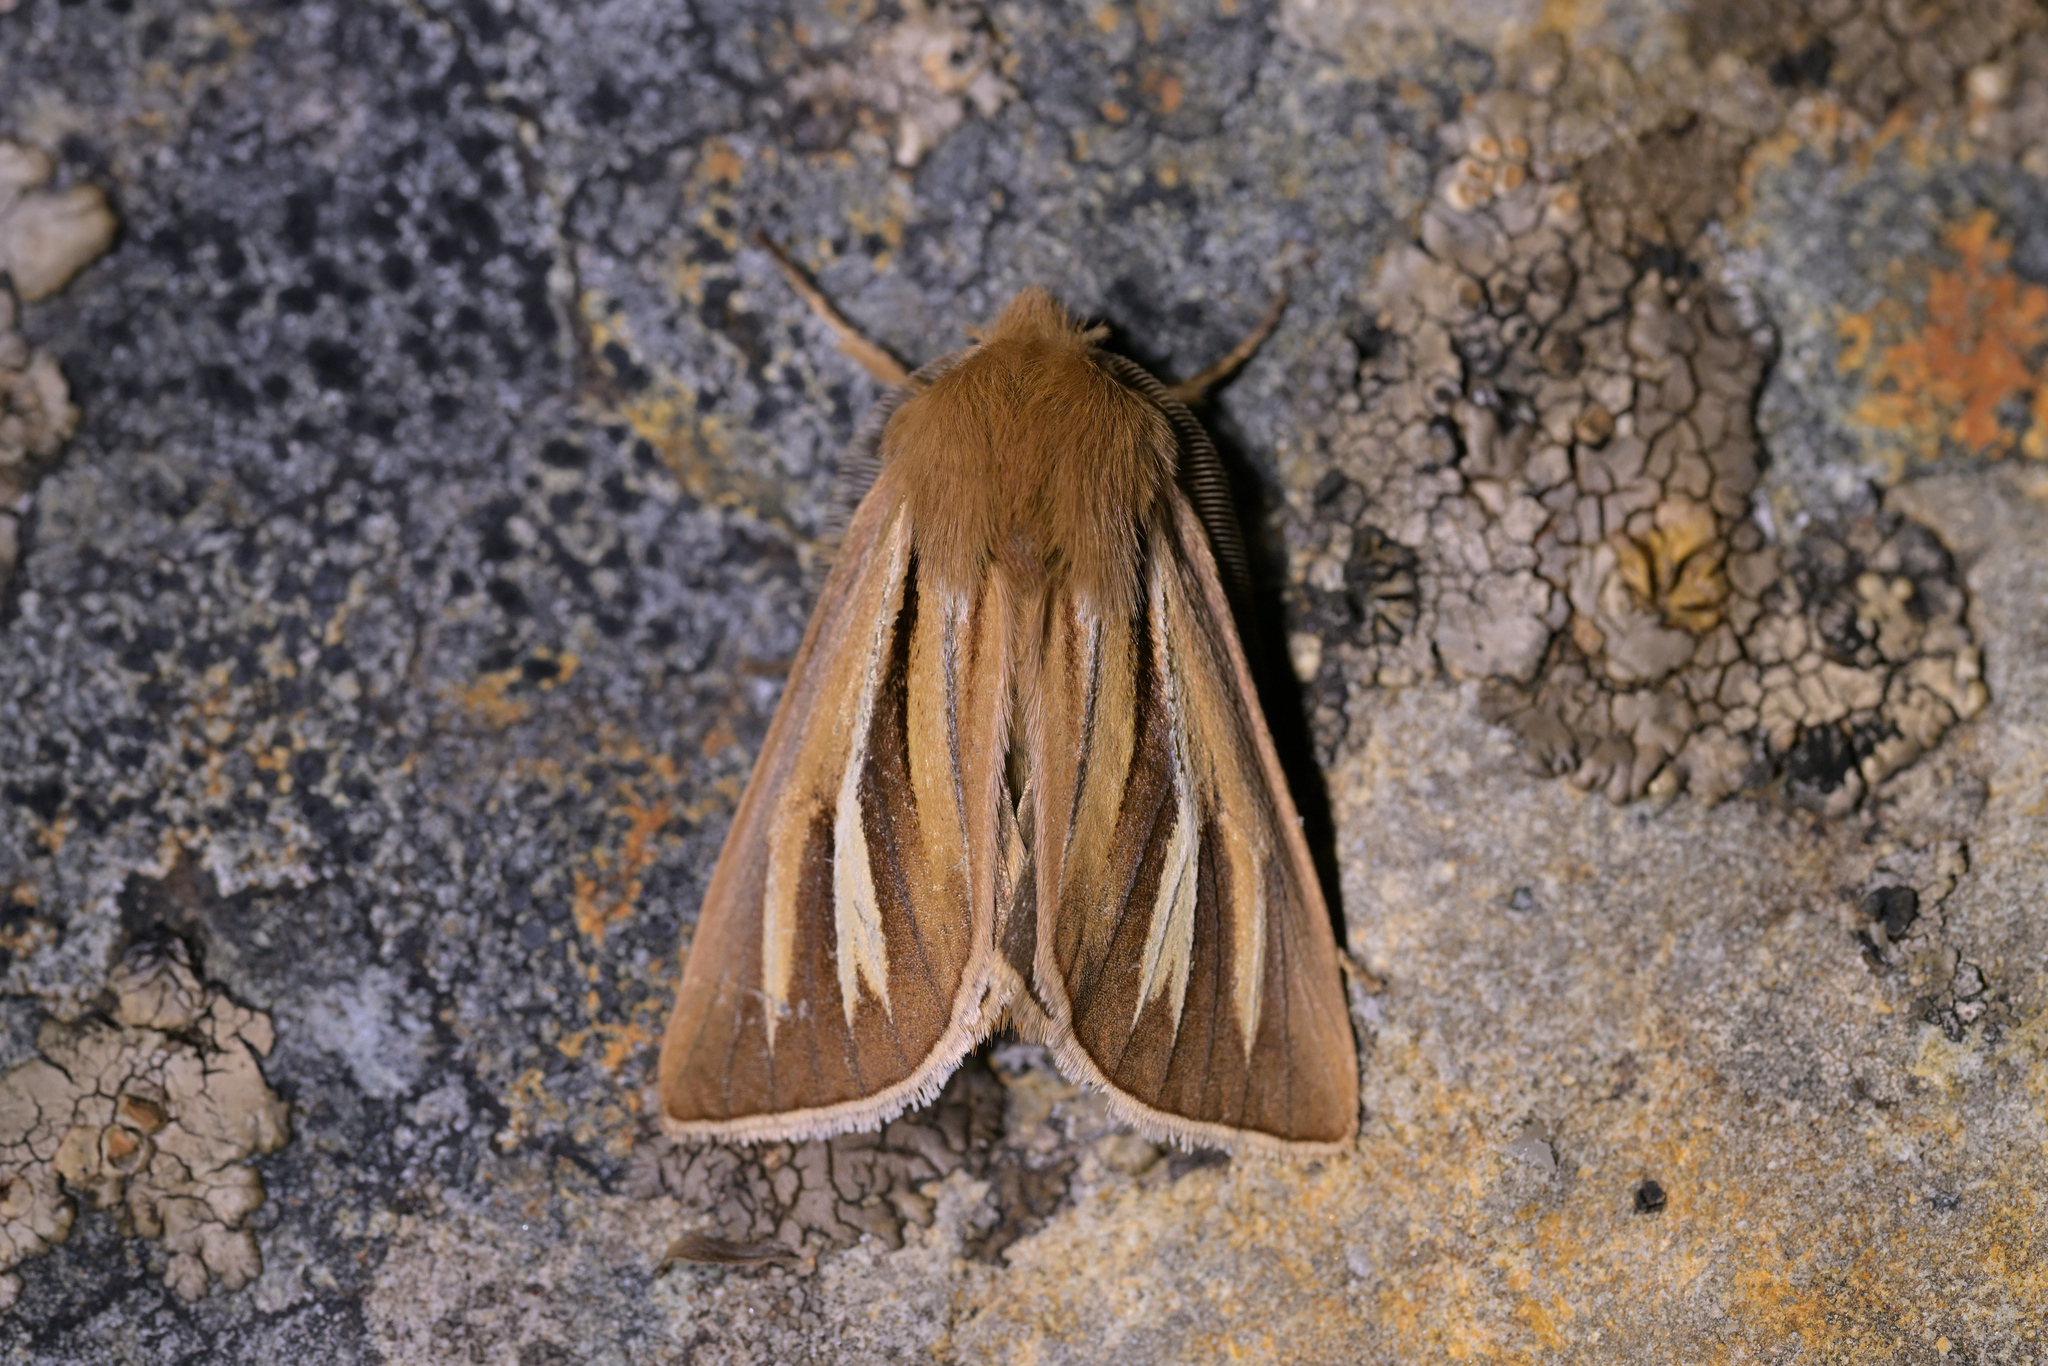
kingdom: Animalia
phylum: Arthropoda
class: Insecta
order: Lepidoptera
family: Noctuidae
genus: Ichneutica
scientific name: Ichneutica caraunias
